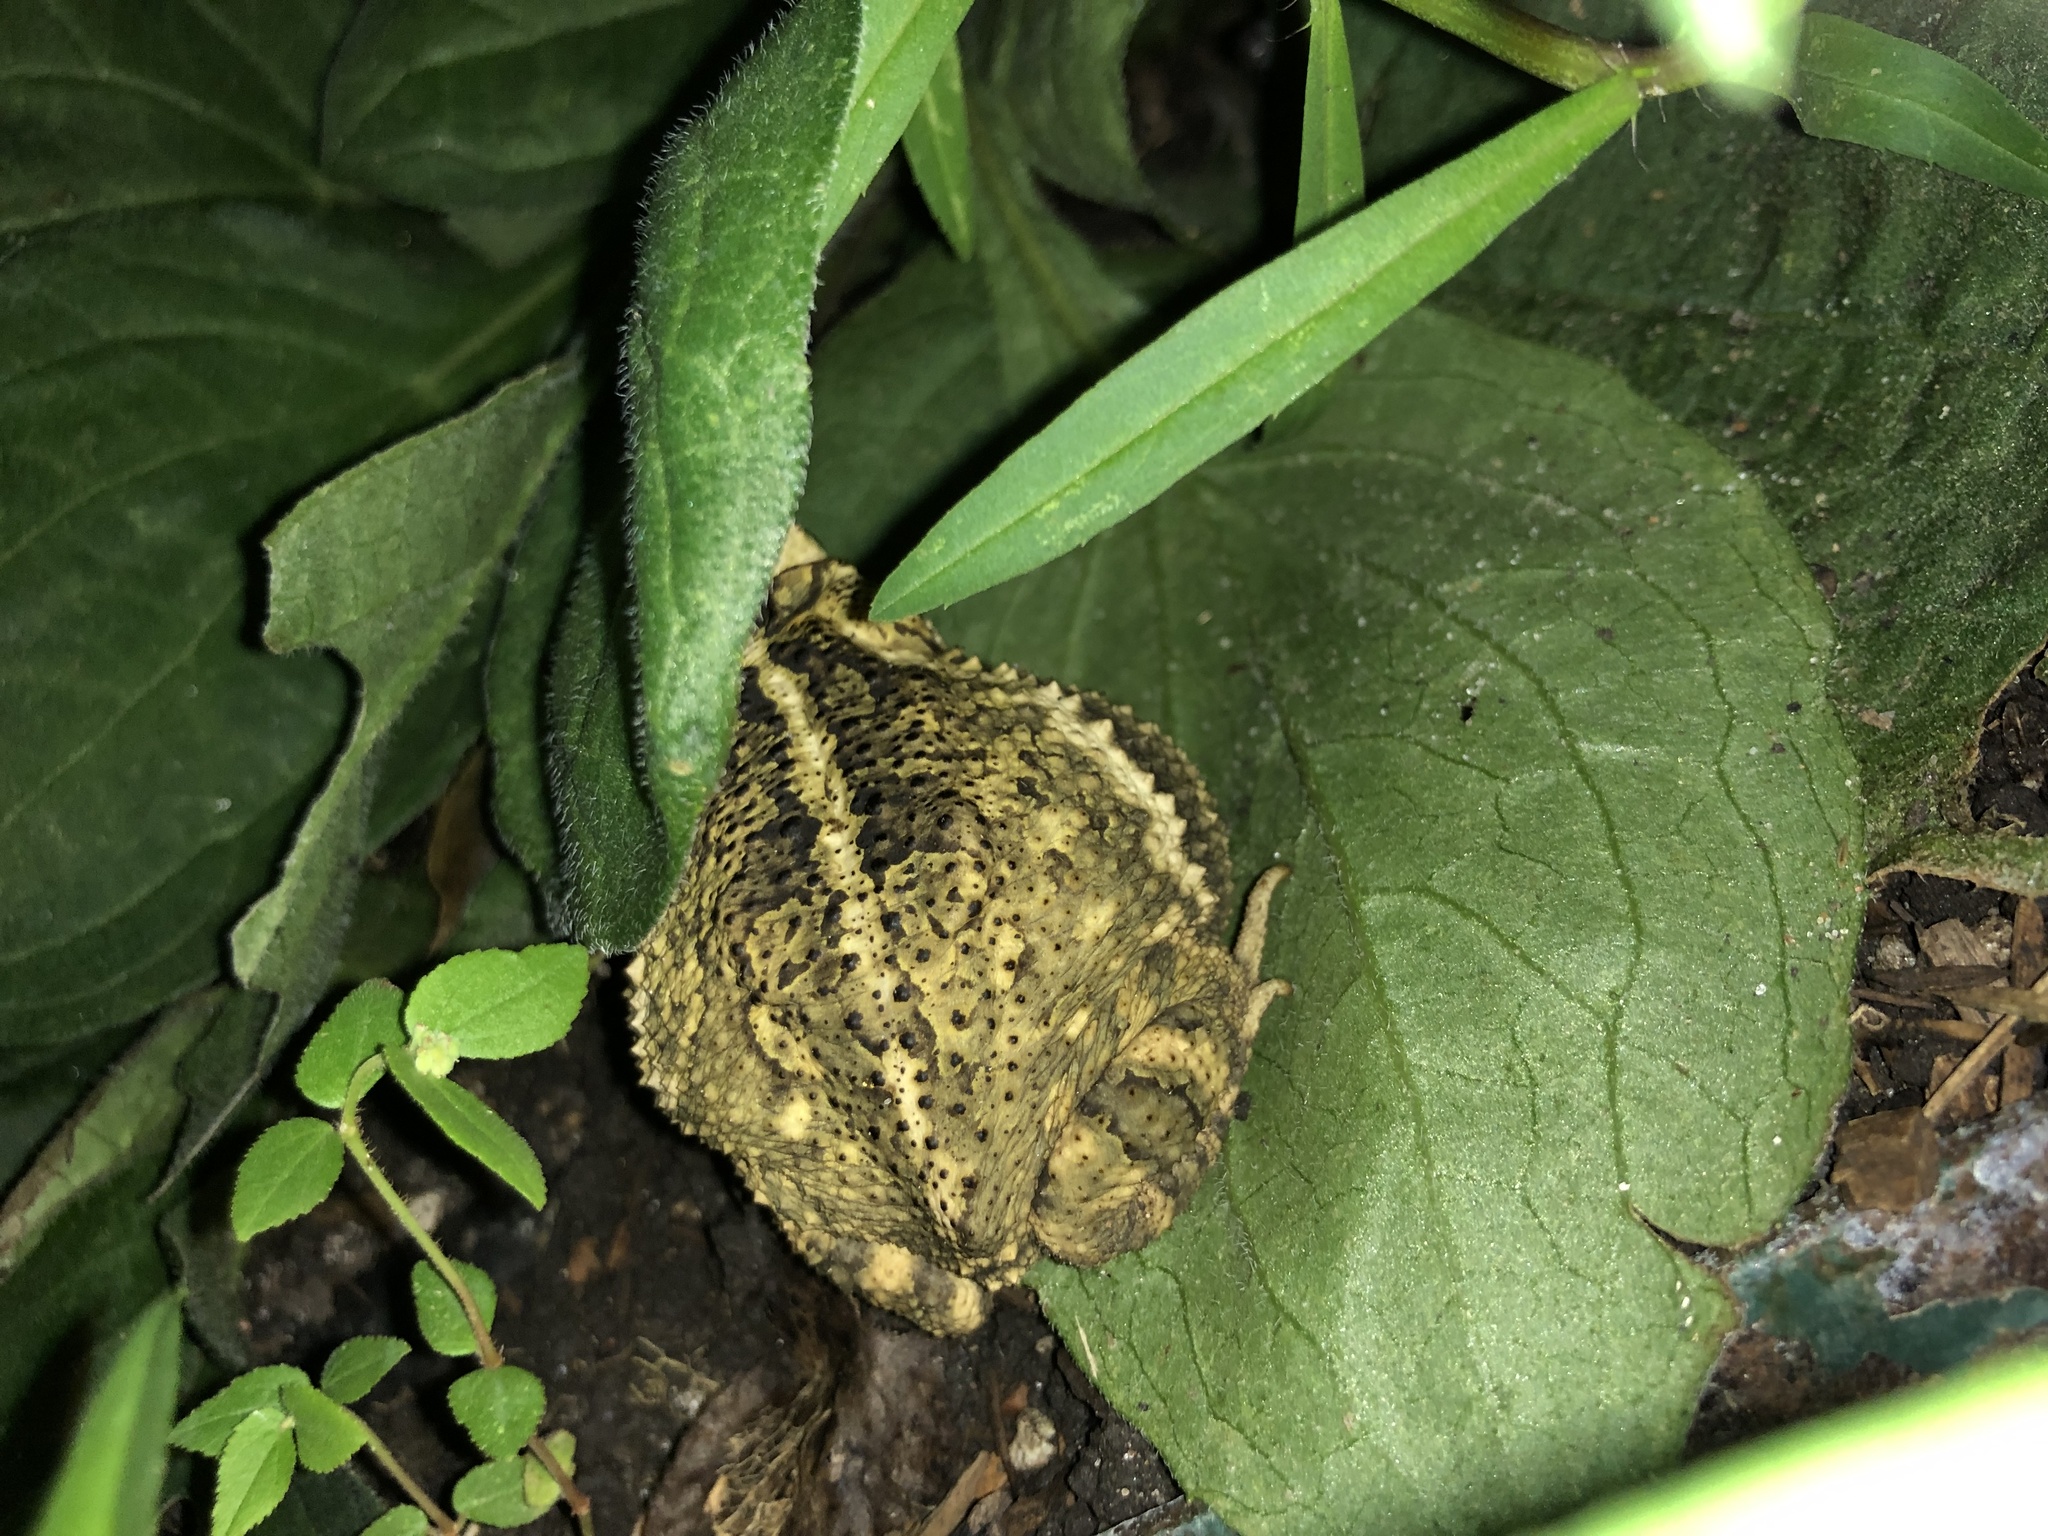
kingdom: Animalia
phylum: Chordata
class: Amphibia
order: Anura
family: Bufonidae
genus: Incilius
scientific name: Incilius nebulifer
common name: Gulf coast toad
